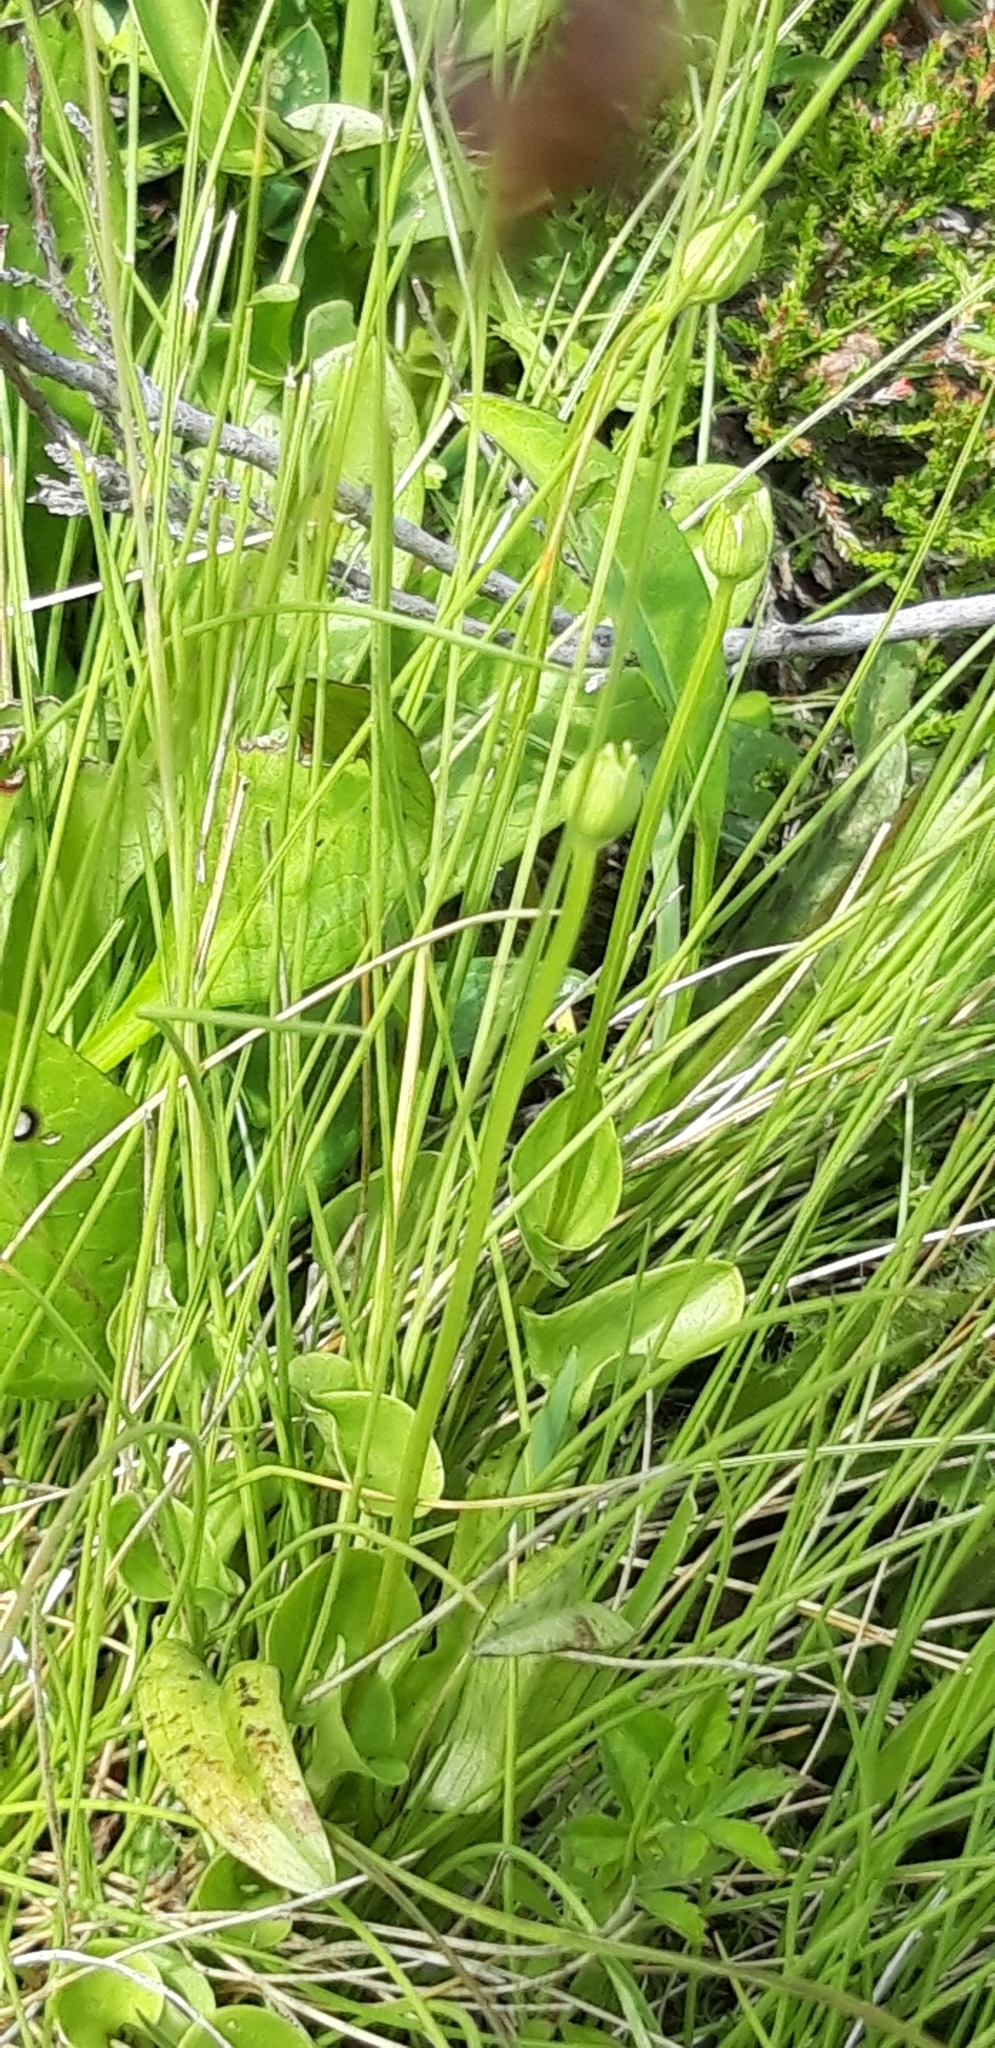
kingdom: Plantae
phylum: Tracheophyta
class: Magnoliopsida
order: Celastrales
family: Parnassiaceae
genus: Parnassia
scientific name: Parnassia palustris
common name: Grass-of-parnassus
